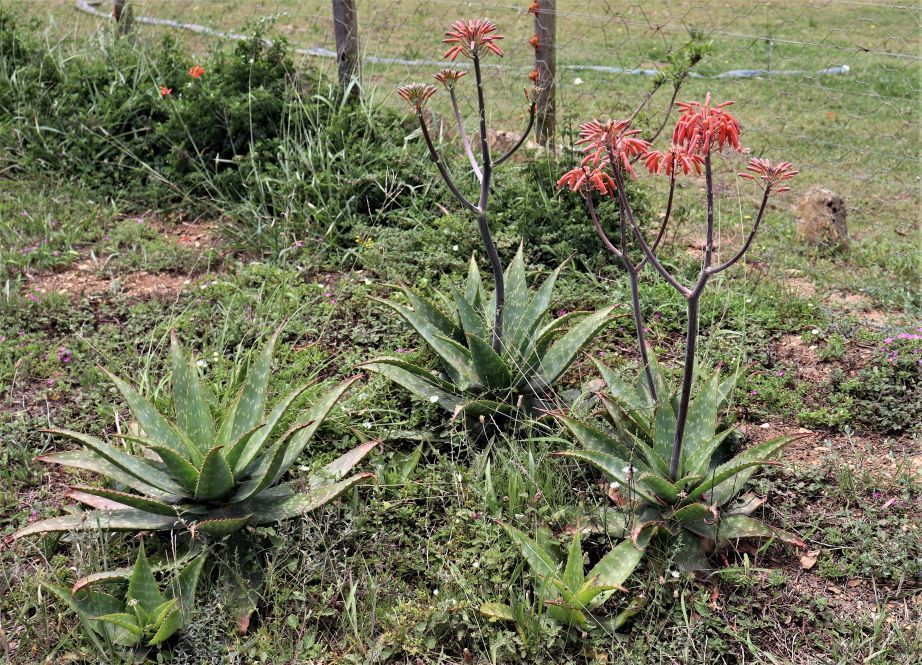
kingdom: Plantae
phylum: Tracheophyta
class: Liliopsida
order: Asparagales
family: Asphodelaceae
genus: Aloe
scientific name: Aloe maculata
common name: Broadleaf aloe
